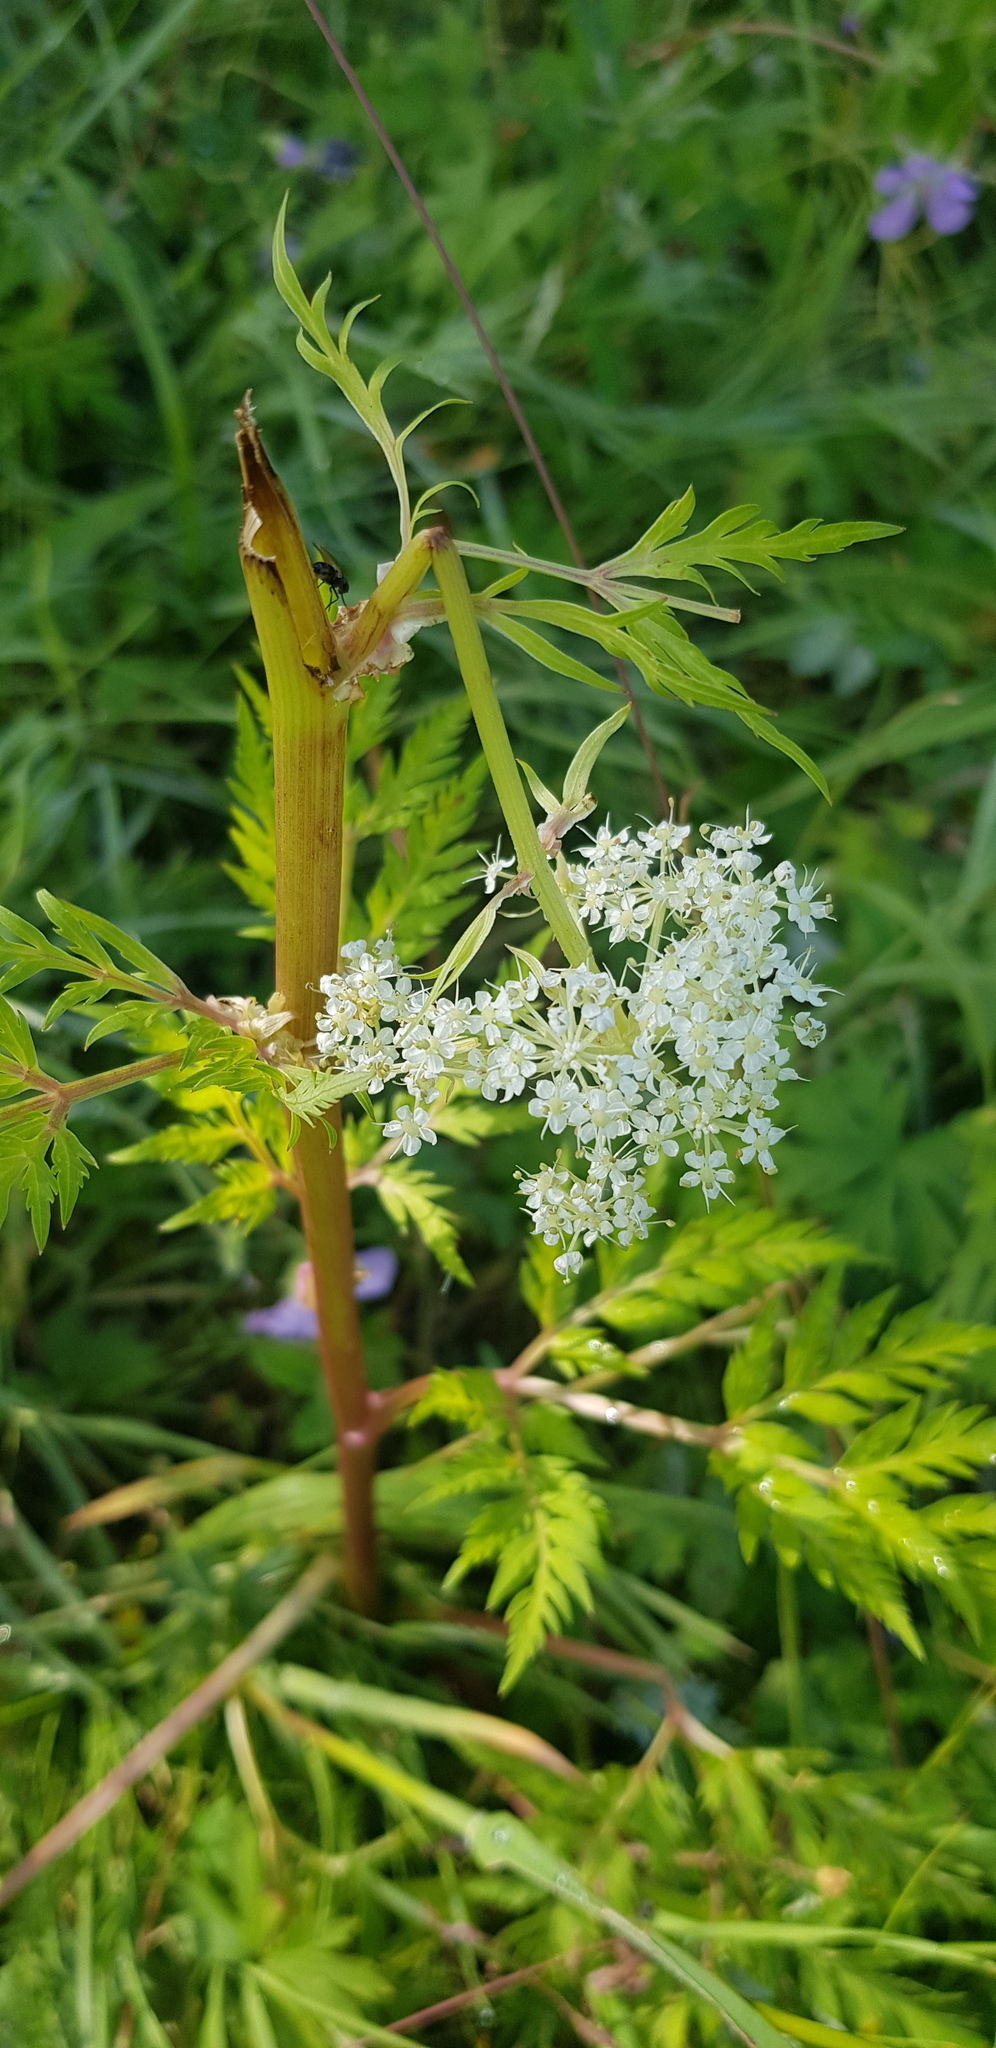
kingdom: Plantae
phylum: Tracheophyta
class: Magnoliopsida
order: Apiales
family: Apiaceae
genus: Pleurospermum
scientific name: Pleurospermum uralense
